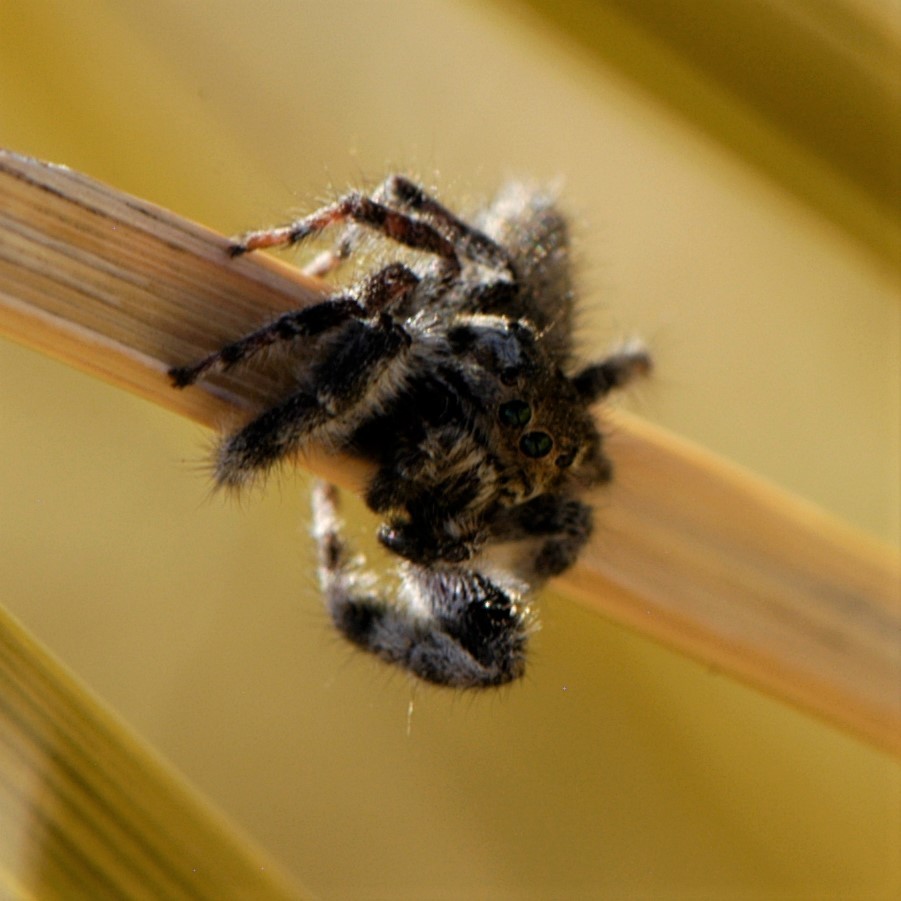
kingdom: Animalia
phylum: Arthropoda
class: Arachnida
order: Araneae
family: Salticidae
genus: Phidippus
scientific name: Phidippus asotus
